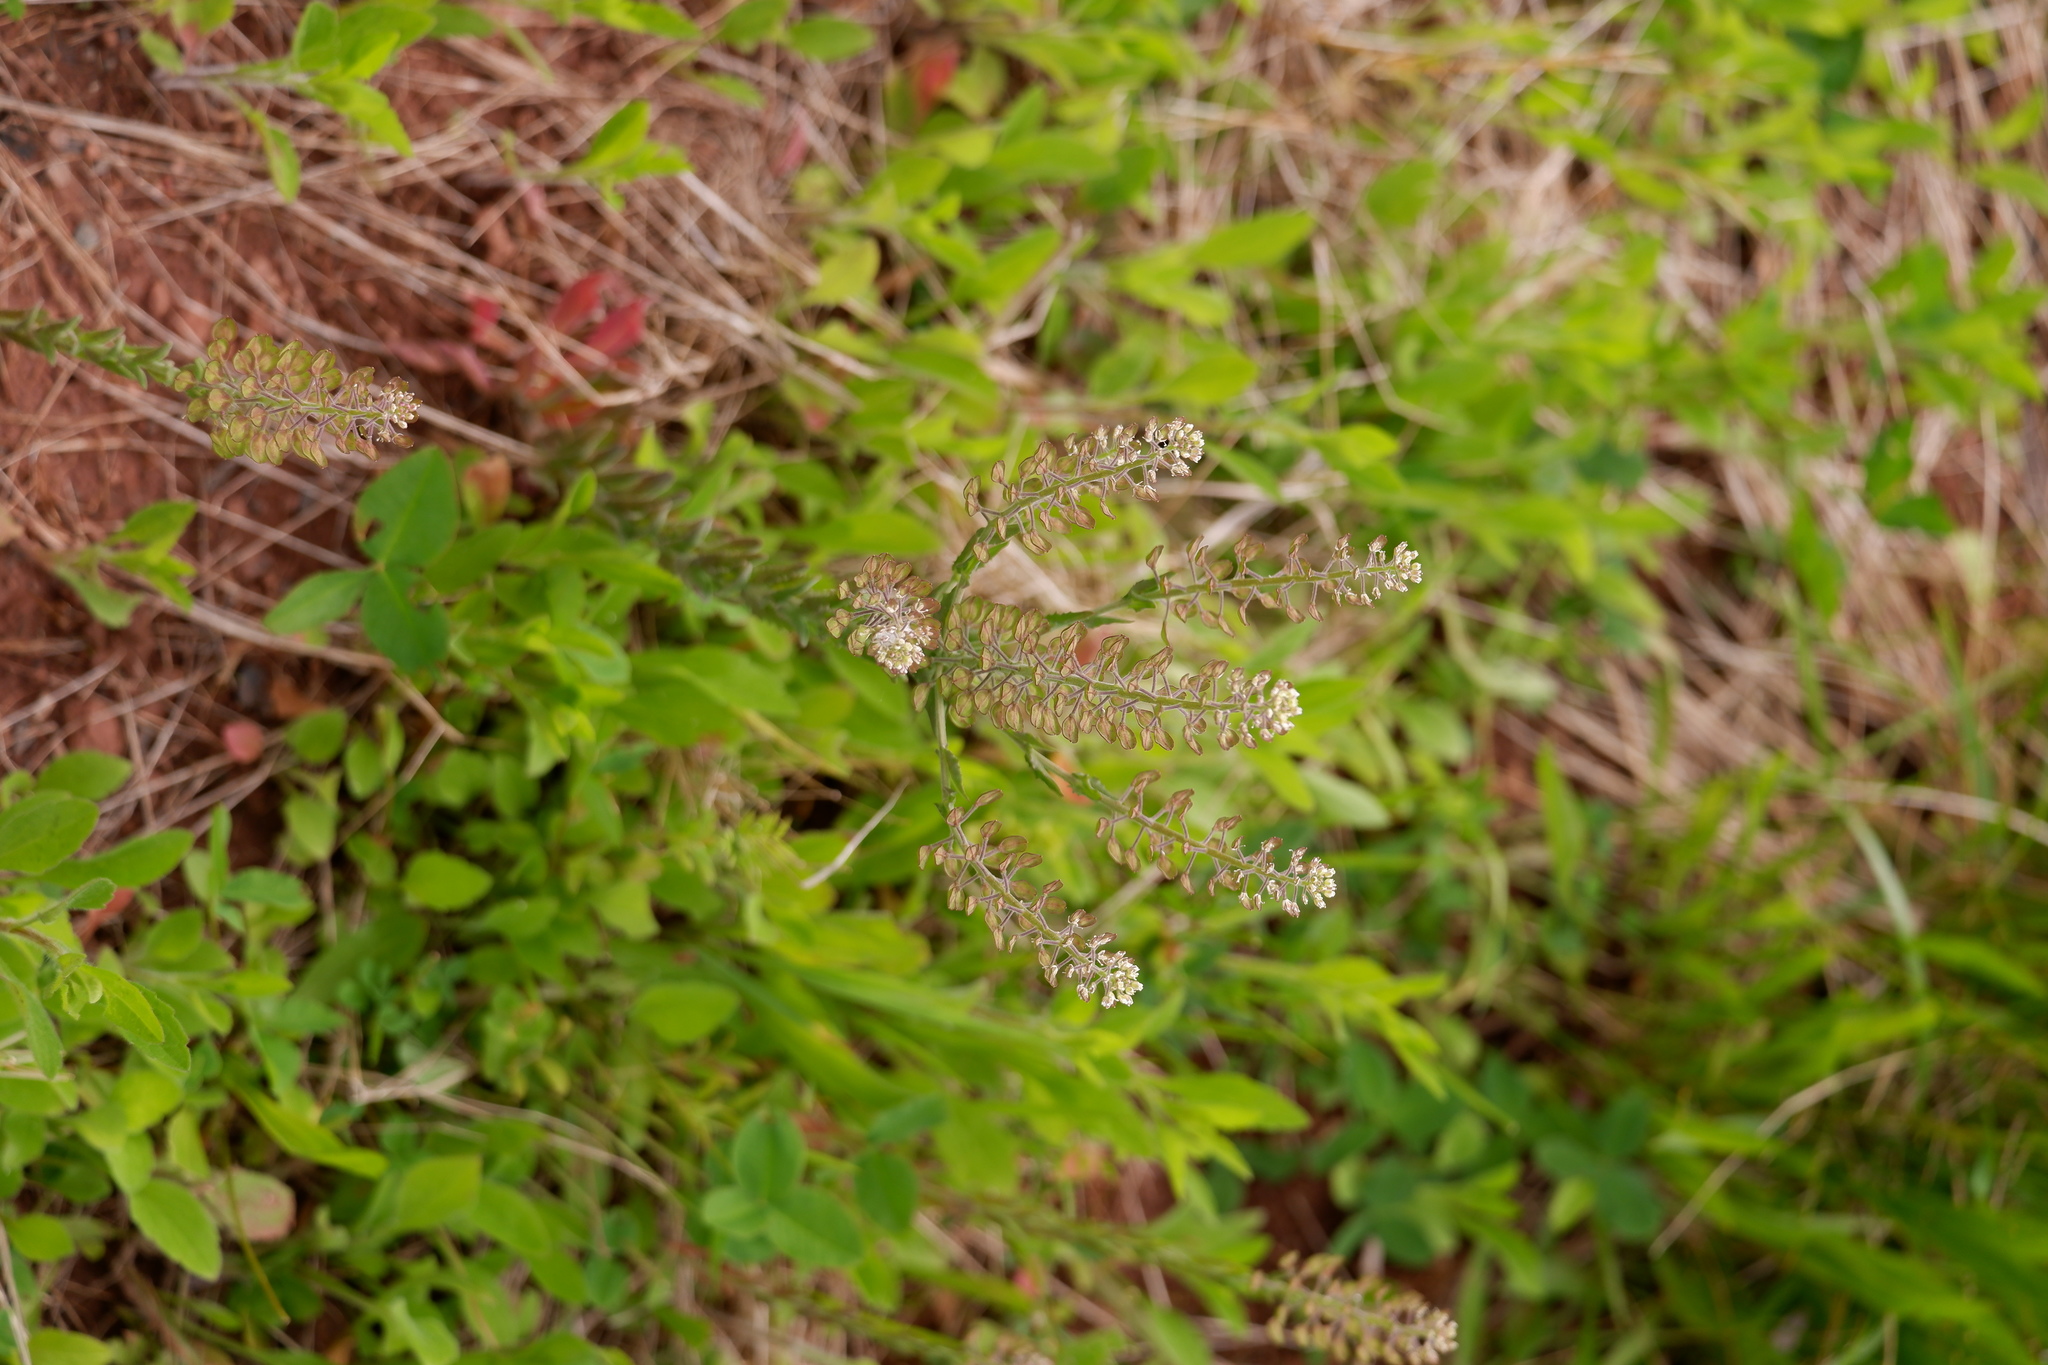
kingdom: Plantae
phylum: Tracheophyta
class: Magnoliopsida
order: Brassicales
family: Brassicaceae
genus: Lepidium
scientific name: Lepidium campestre
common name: Field pepperwort
